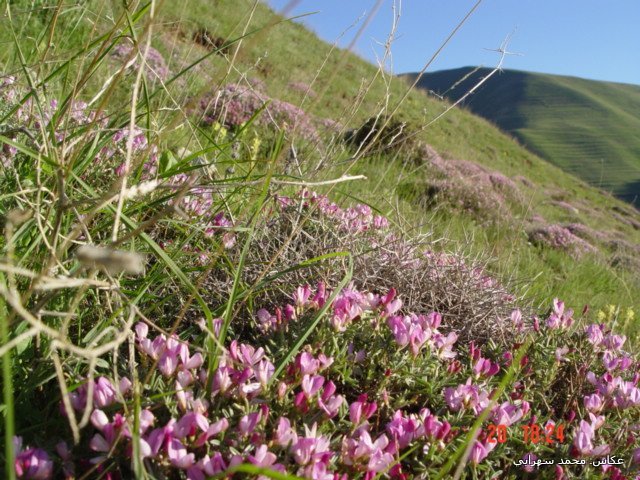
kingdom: Plantae
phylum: Tracheophyta
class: Magnoliopsida
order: Fabales
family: Fabaceae
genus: Onobrychis
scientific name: Onobrychis cornuta
